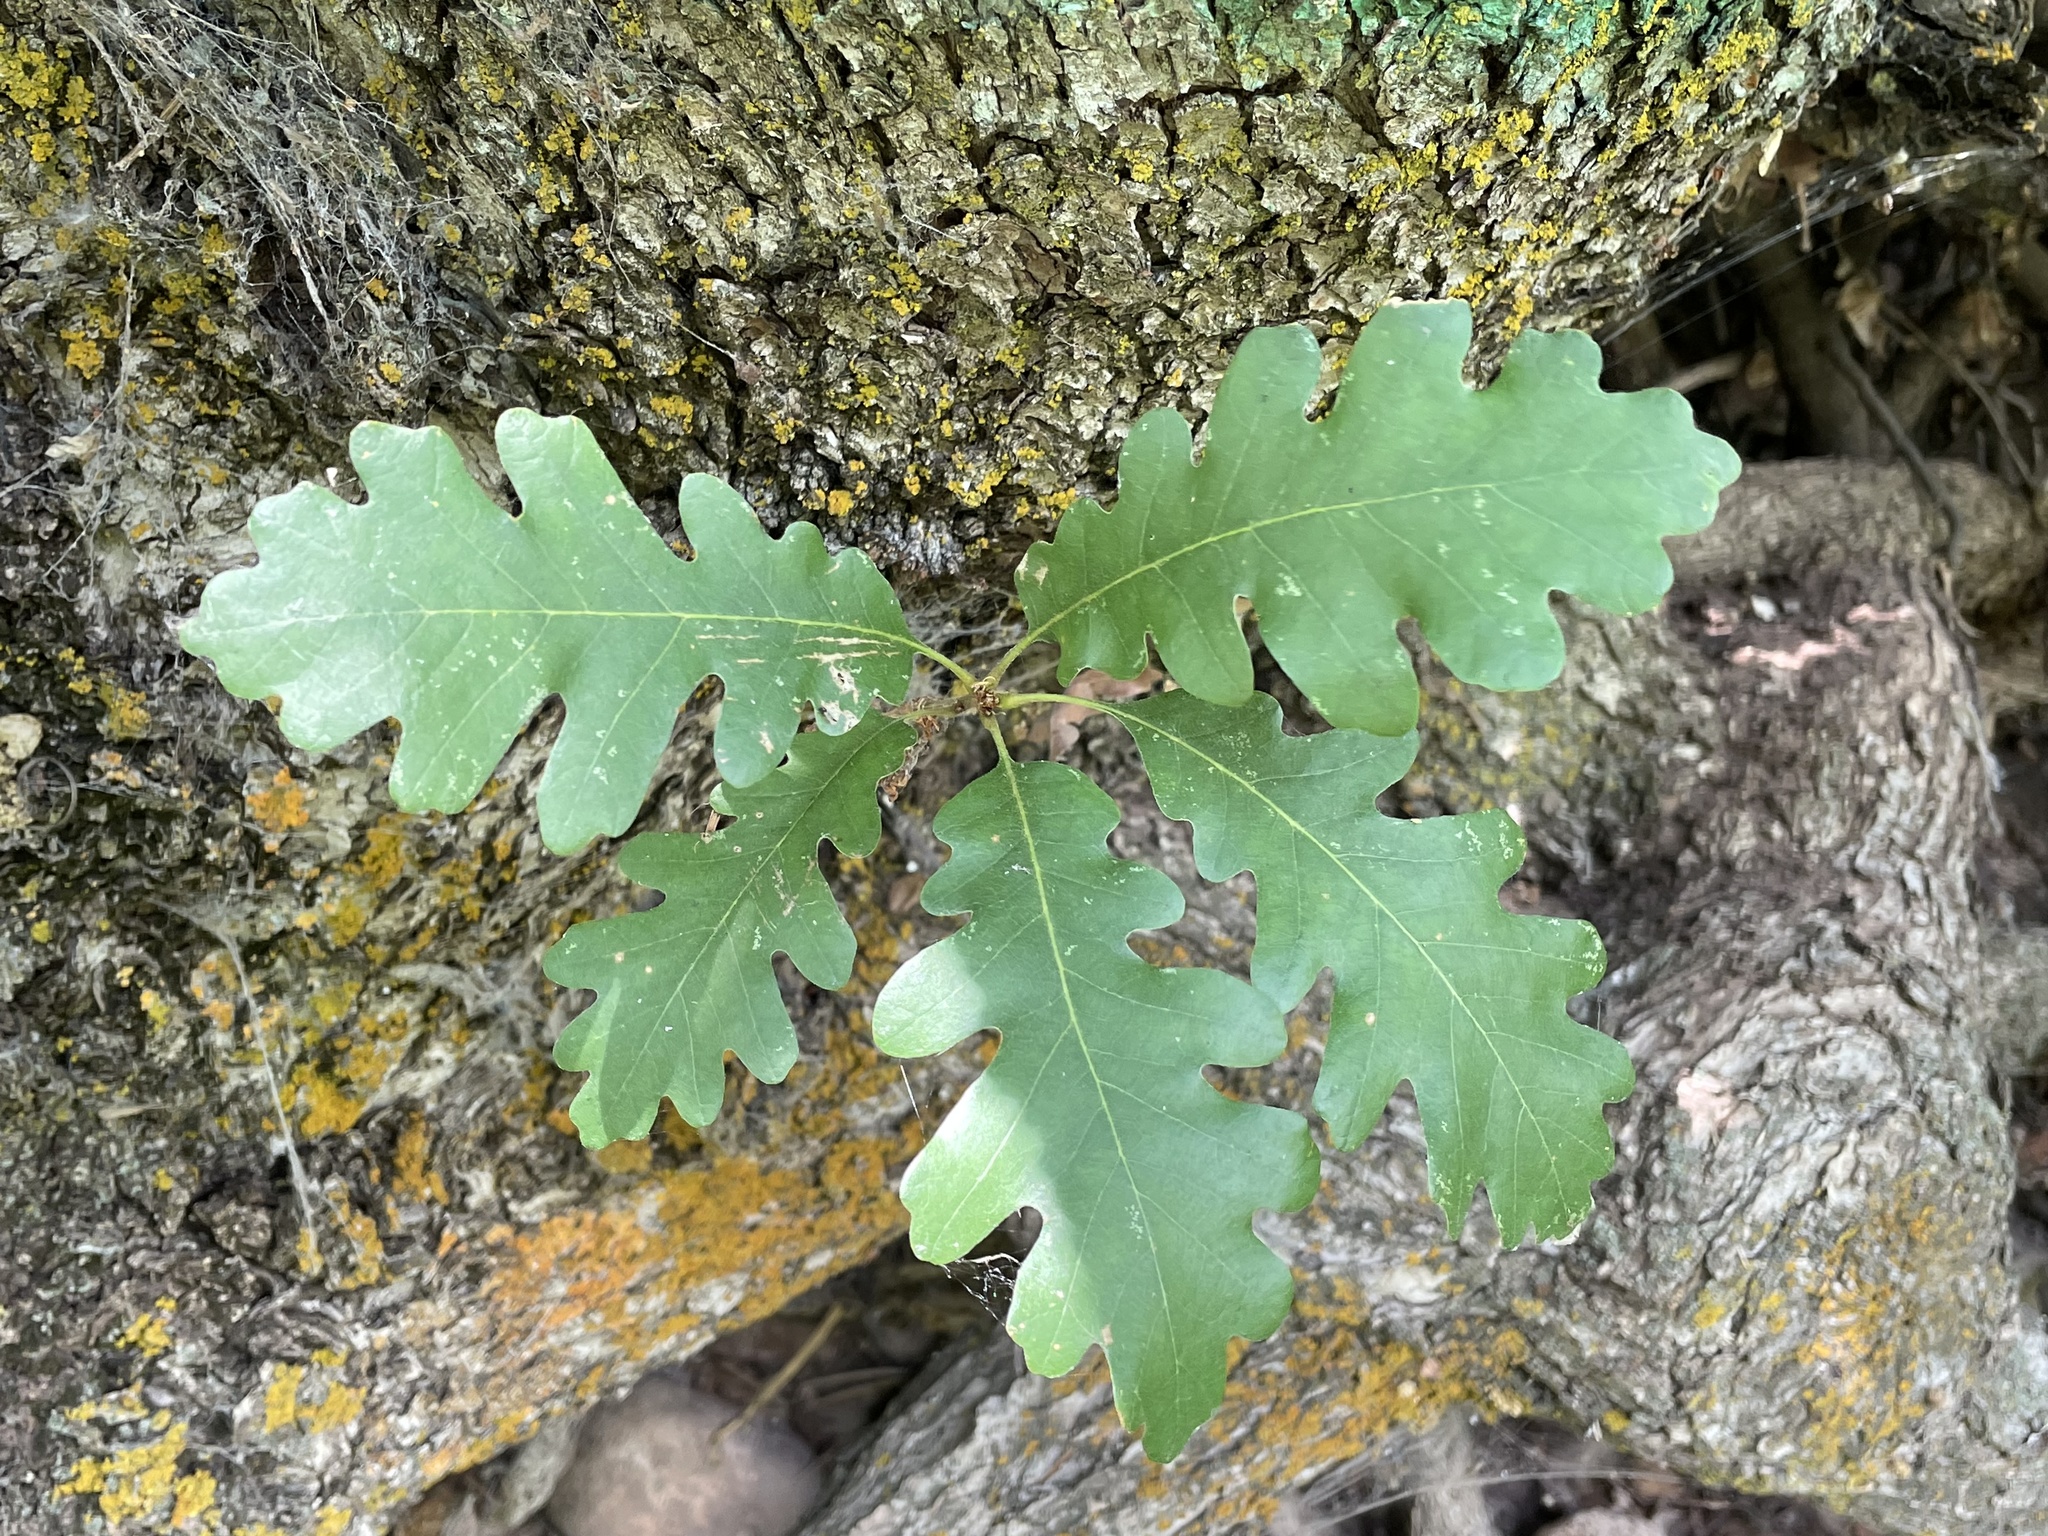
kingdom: Plantae
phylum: Tracheophyta
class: Magnoliopsida
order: Fagales
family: Fagaceae
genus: Quercus
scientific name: Quercus gambelii
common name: Gambel oak
